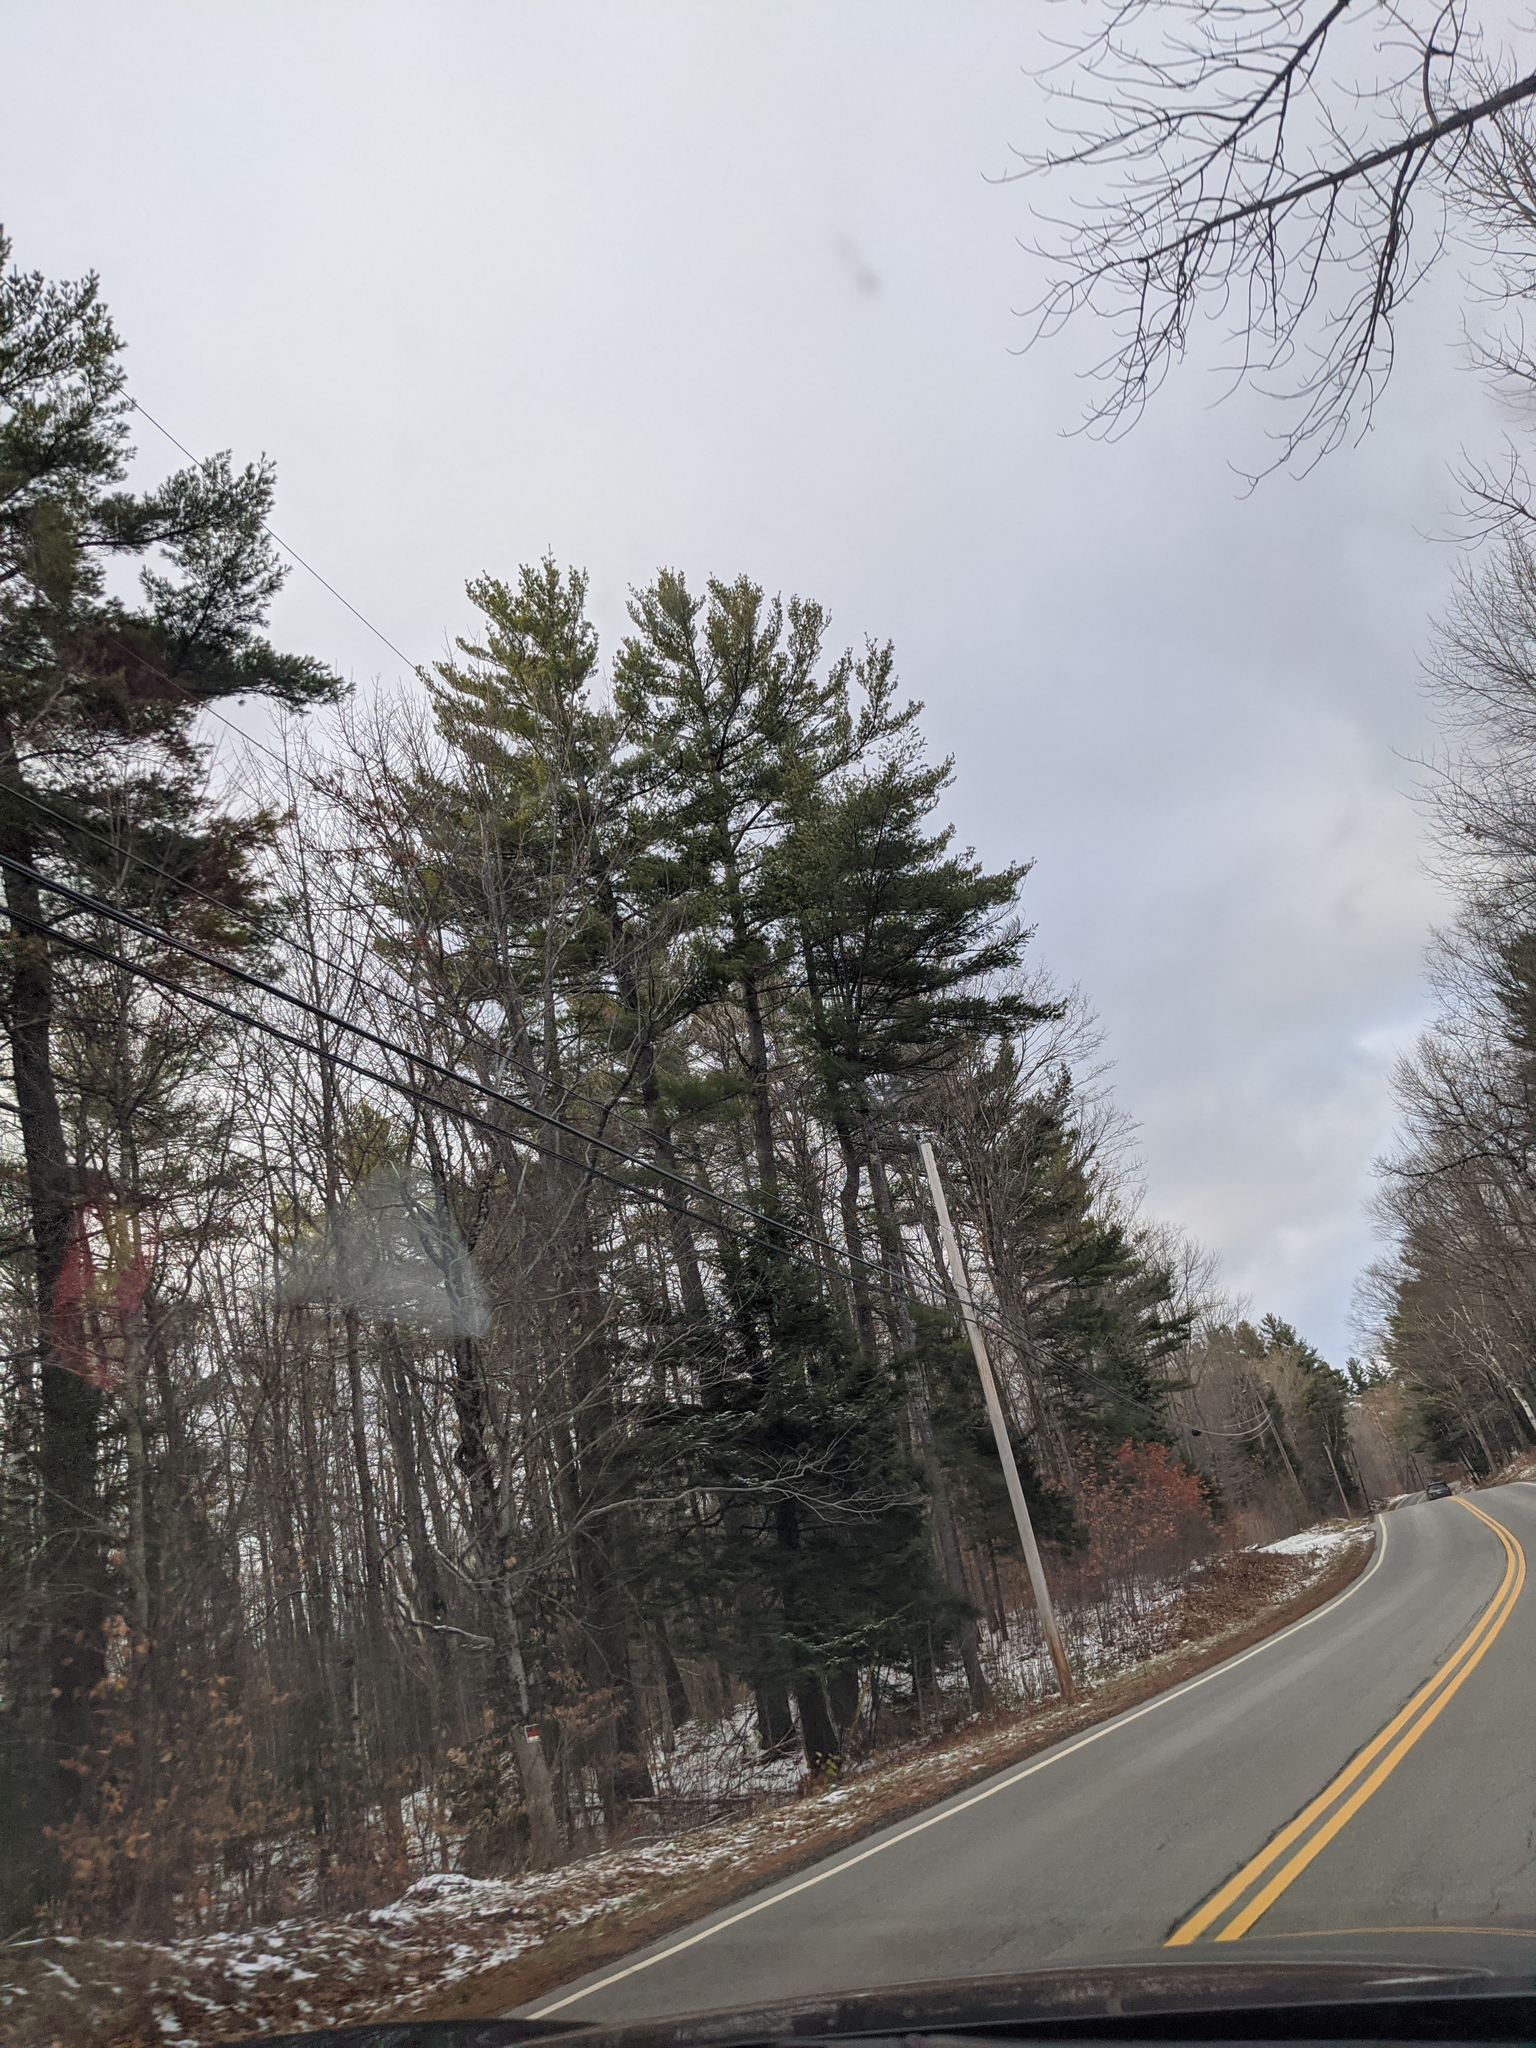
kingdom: Plantae
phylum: Tracheophyta
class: Pinopsida
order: Pinales
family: Pinaceae
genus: Pinus
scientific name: Pinus strobus
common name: Weymouth pine
